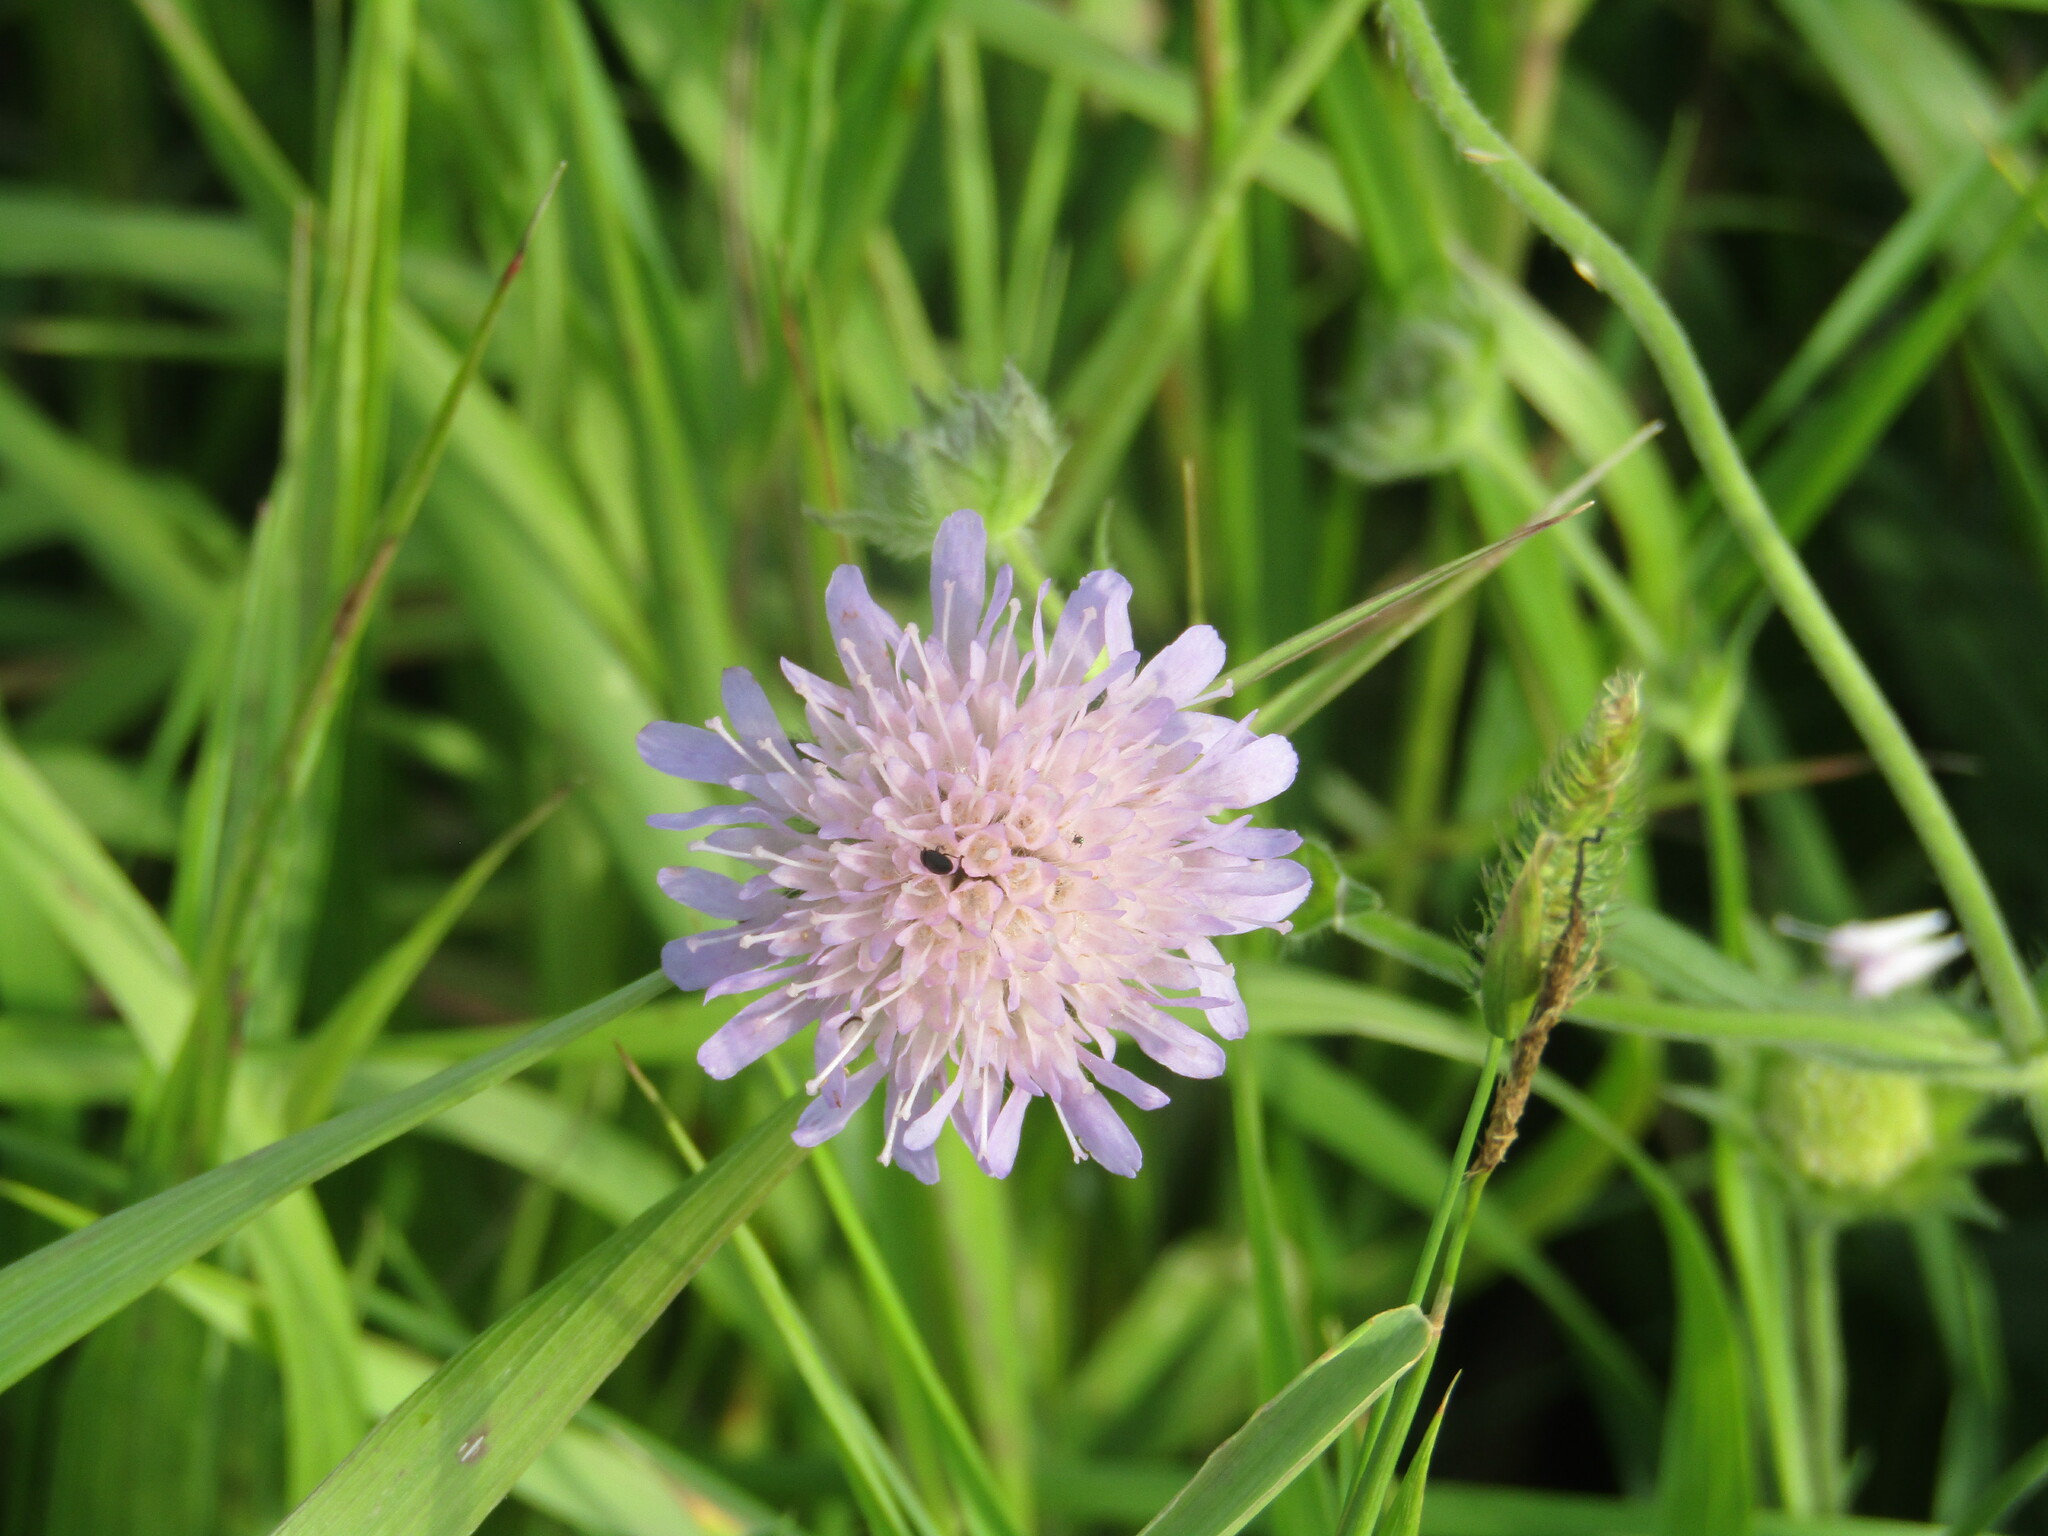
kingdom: Plantae
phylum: Tracheophyta
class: Magnoliopsida
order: Dipsacales
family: Caprifoliaceae
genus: Knautia
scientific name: Knautia arvensis
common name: Field scabiosa
